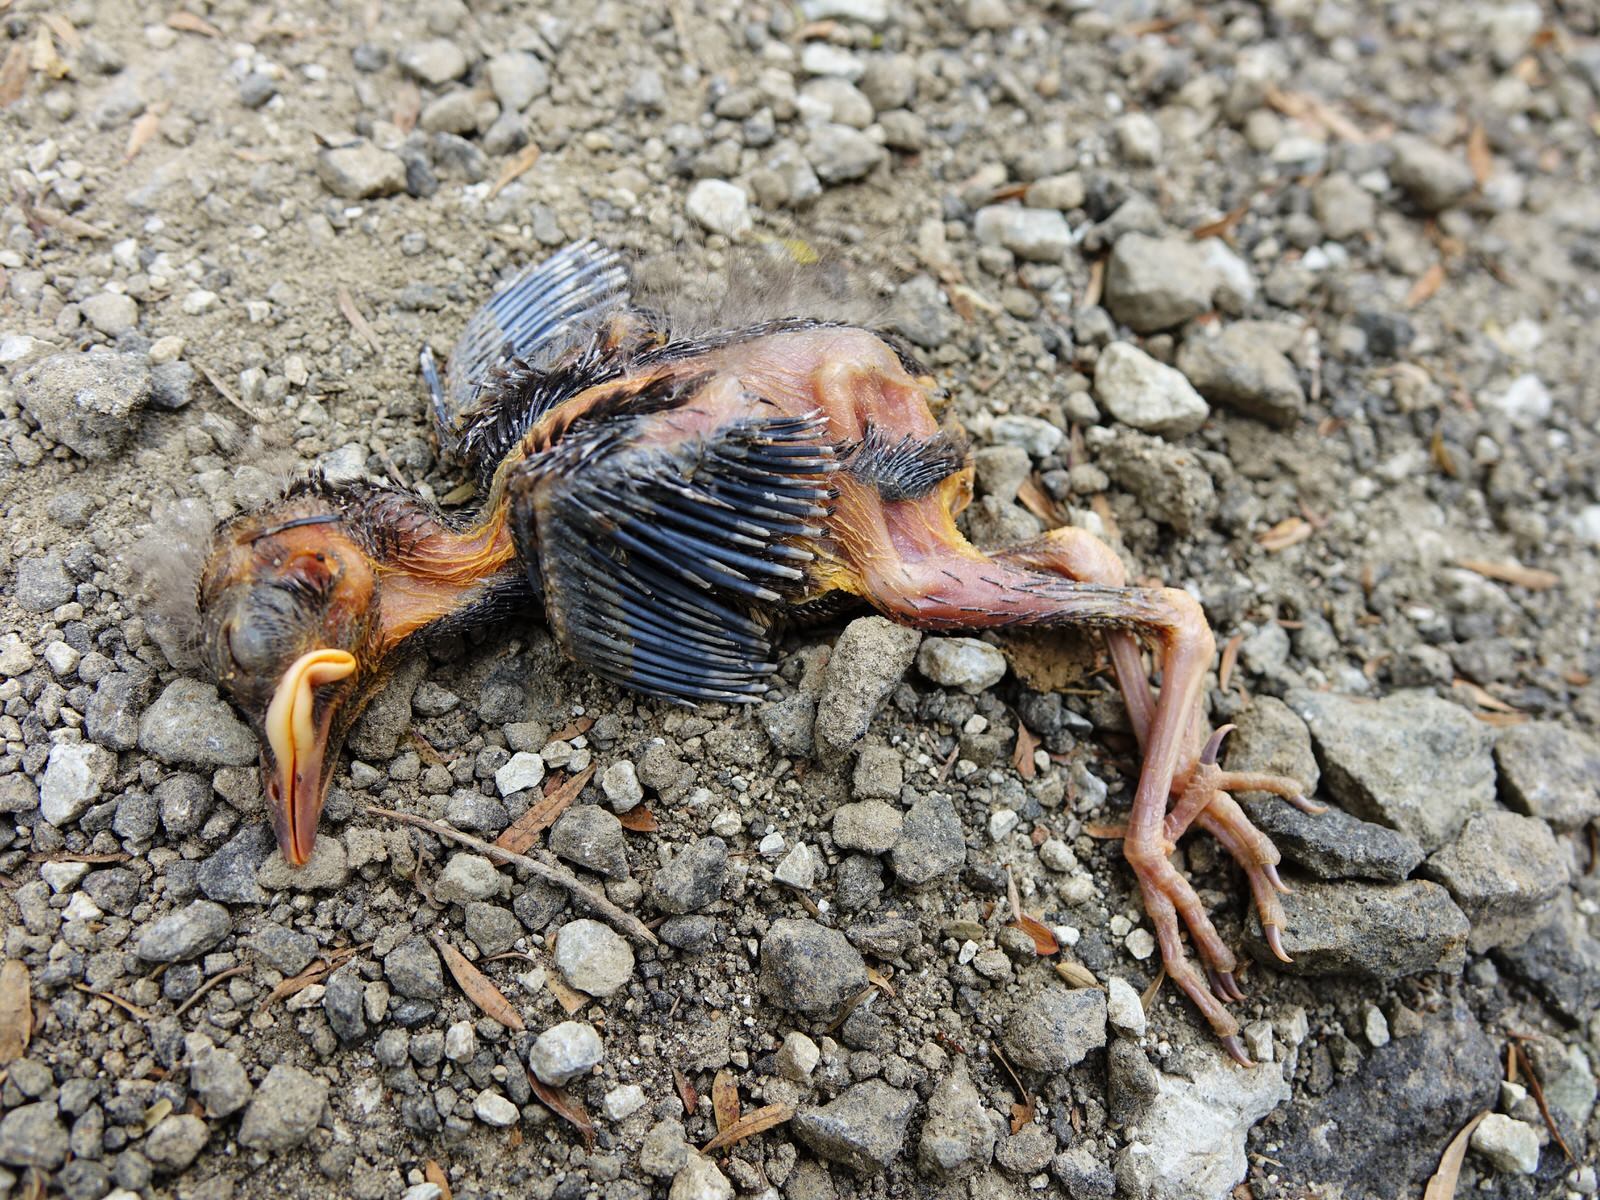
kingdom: Animalia
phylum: Chordata
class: Aves
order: Passeriformes
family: Meliphagidae
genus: Prosthemadera
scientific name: Prosthemadera novaeseelandiae
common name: Tui
